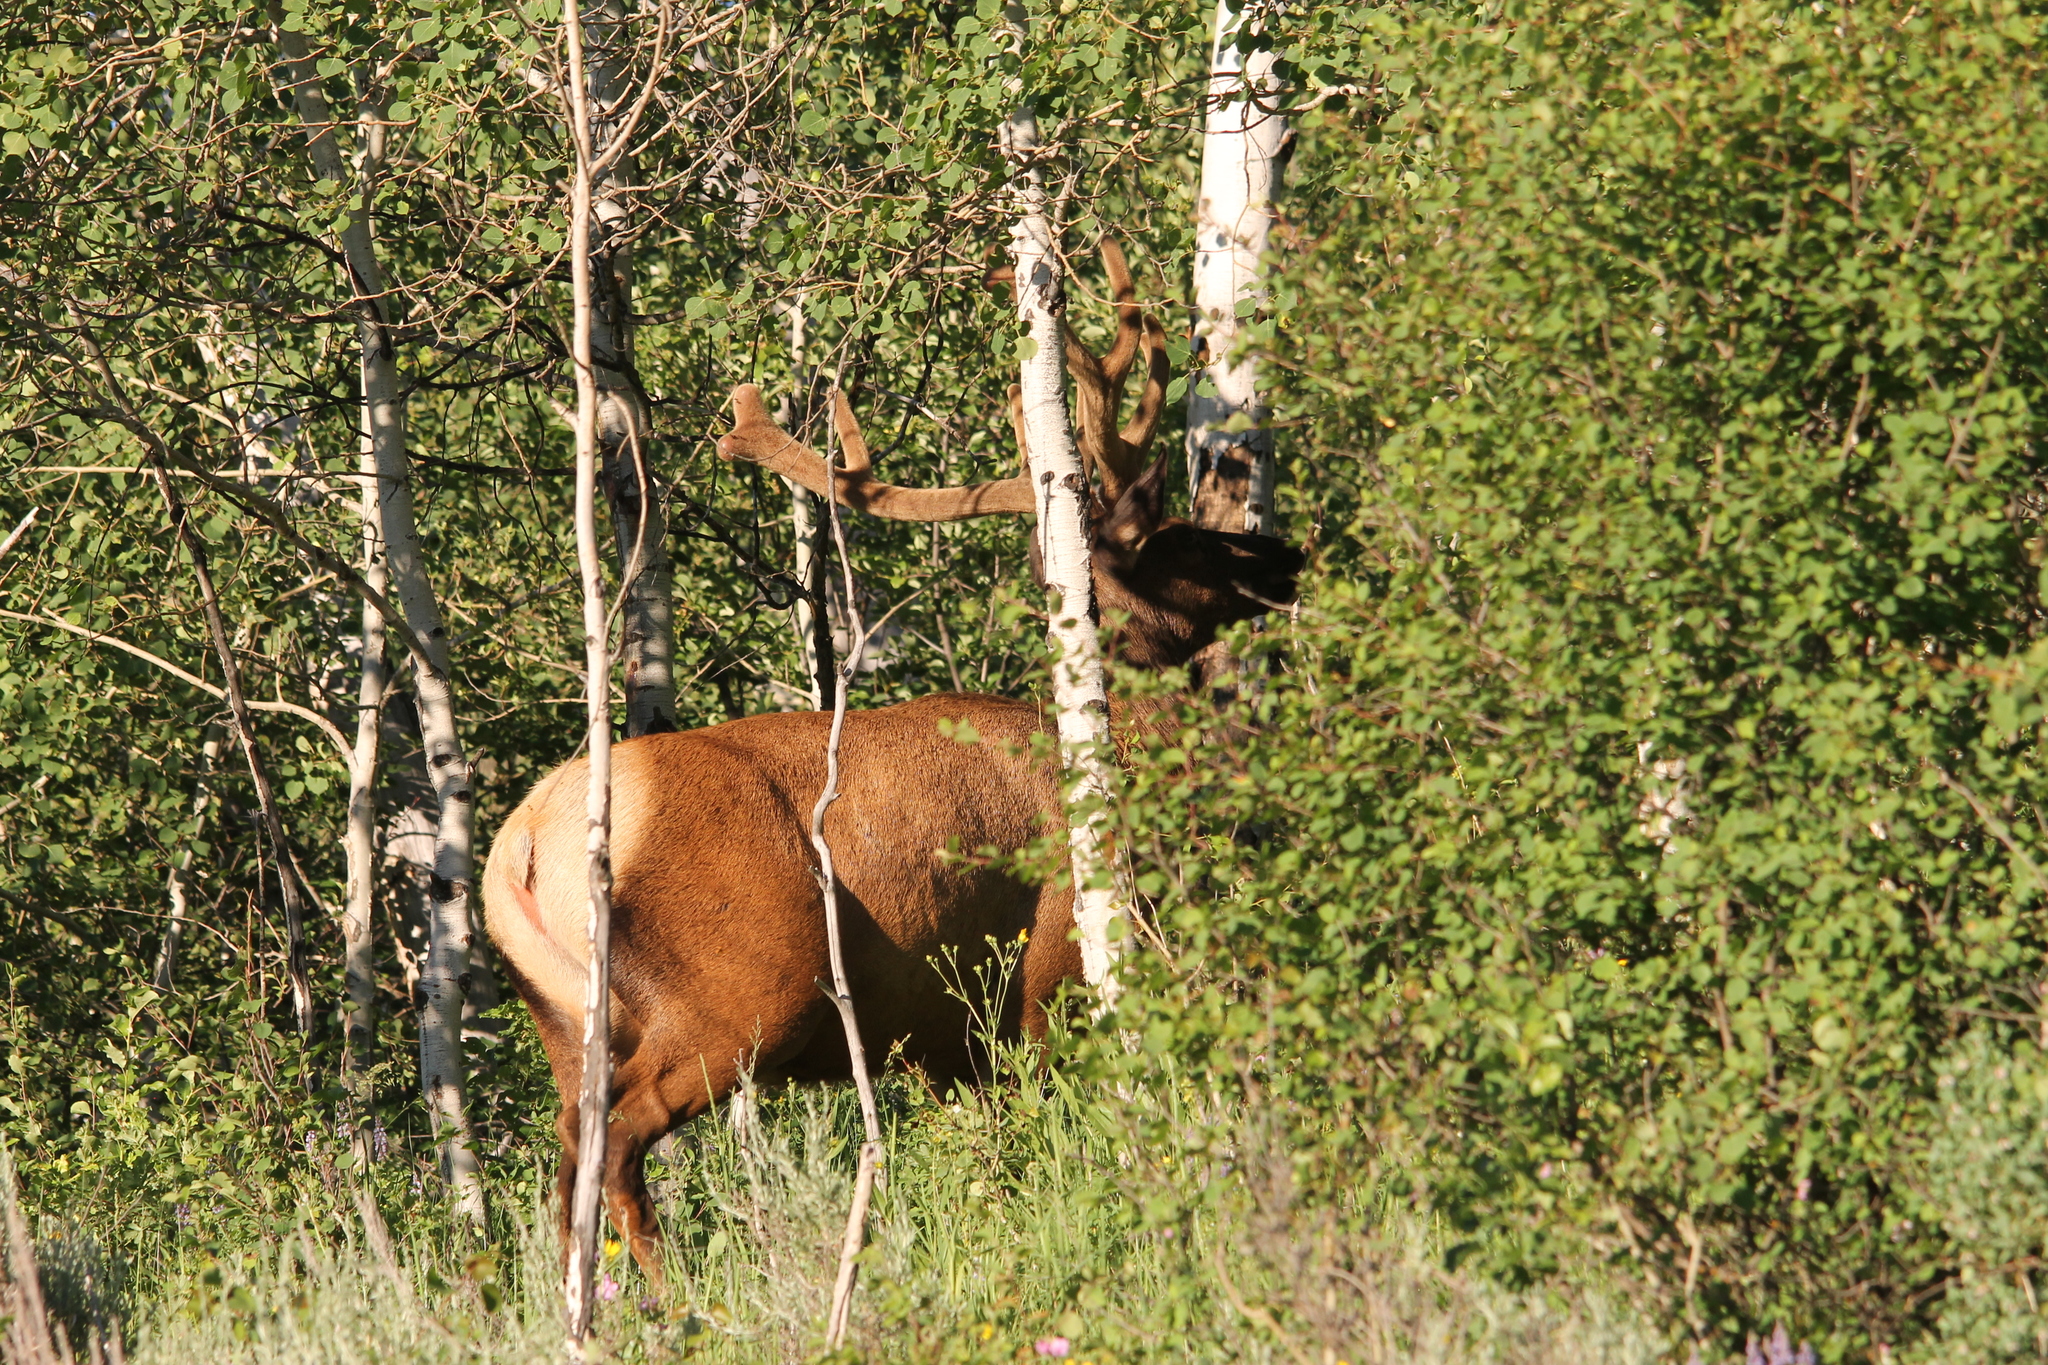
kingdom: Animalia
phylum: Chordata
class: Mammalia
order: Artiodactyla
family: Cervidae
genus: Cervus
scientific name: Cervus elaphus
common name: Red deer
